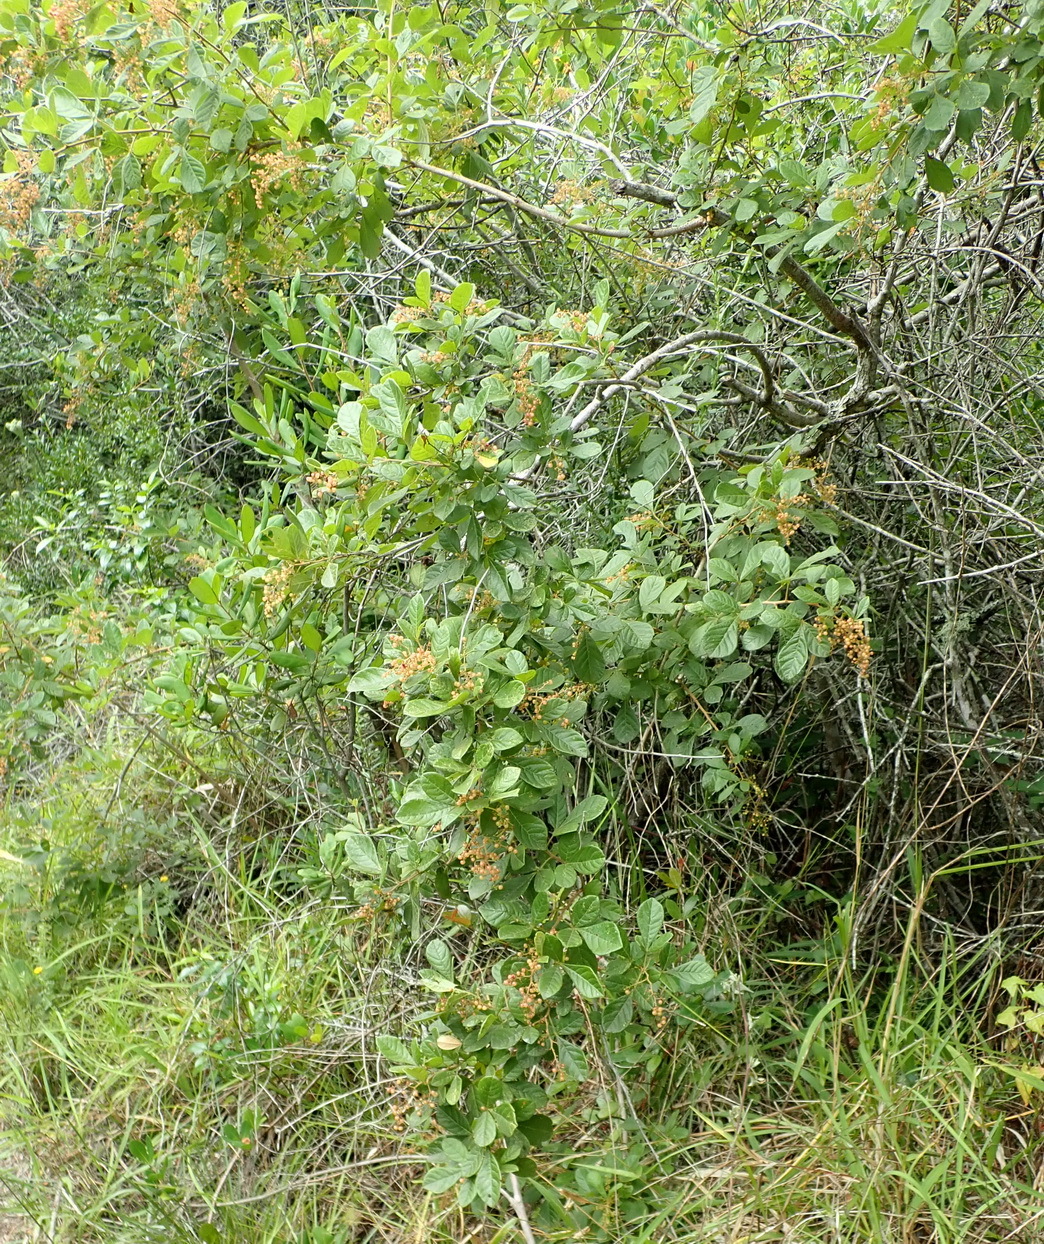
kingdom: Plantae
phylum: Tracheophyta
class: Magnoliopsida
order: Sapindales
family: Anacardiaceae
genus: Searsia
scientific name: Searsia pyroides
